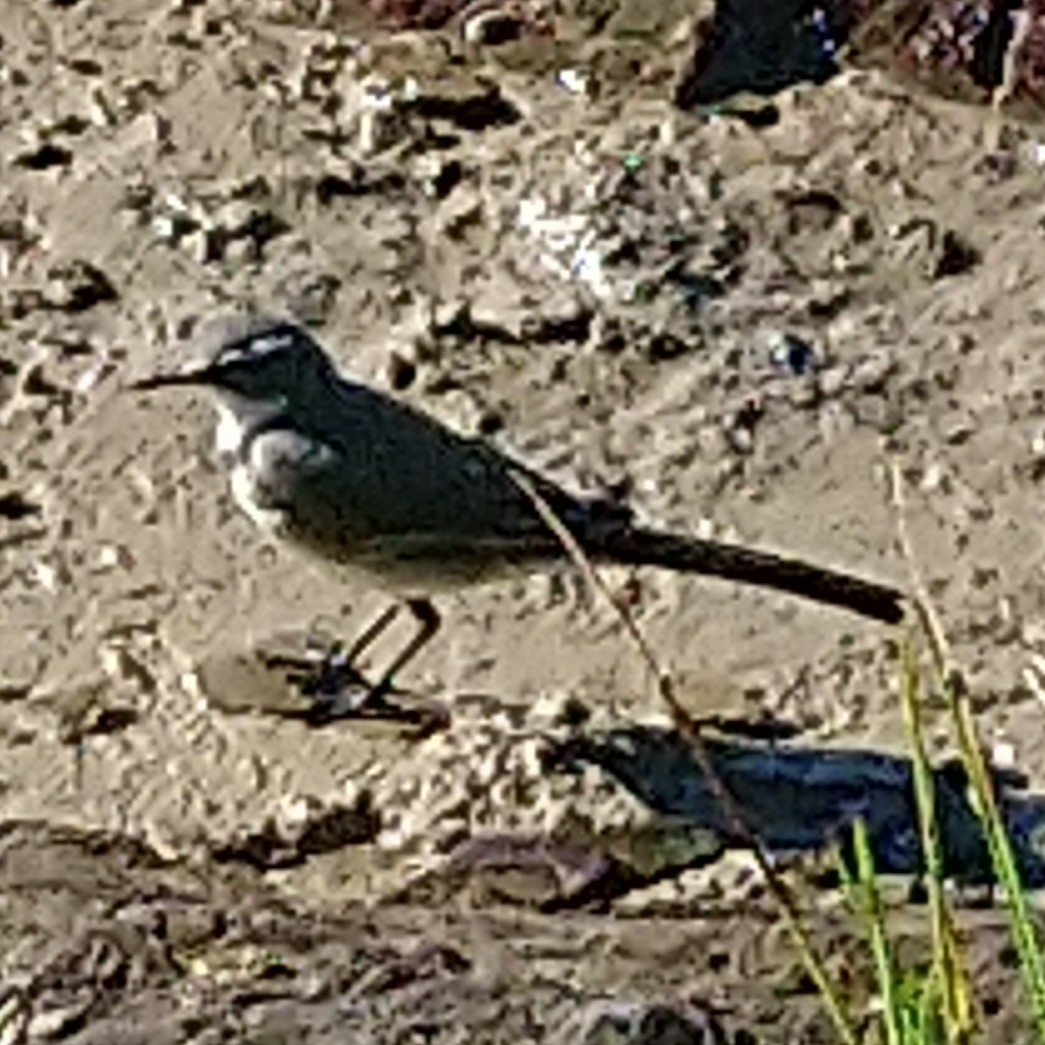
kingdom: Animalia
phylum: Chordata
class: Aves
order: Passeriformes
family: Motacillidae
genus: Motacilla
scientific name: Motacilla capensis
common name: Cape wagtail
